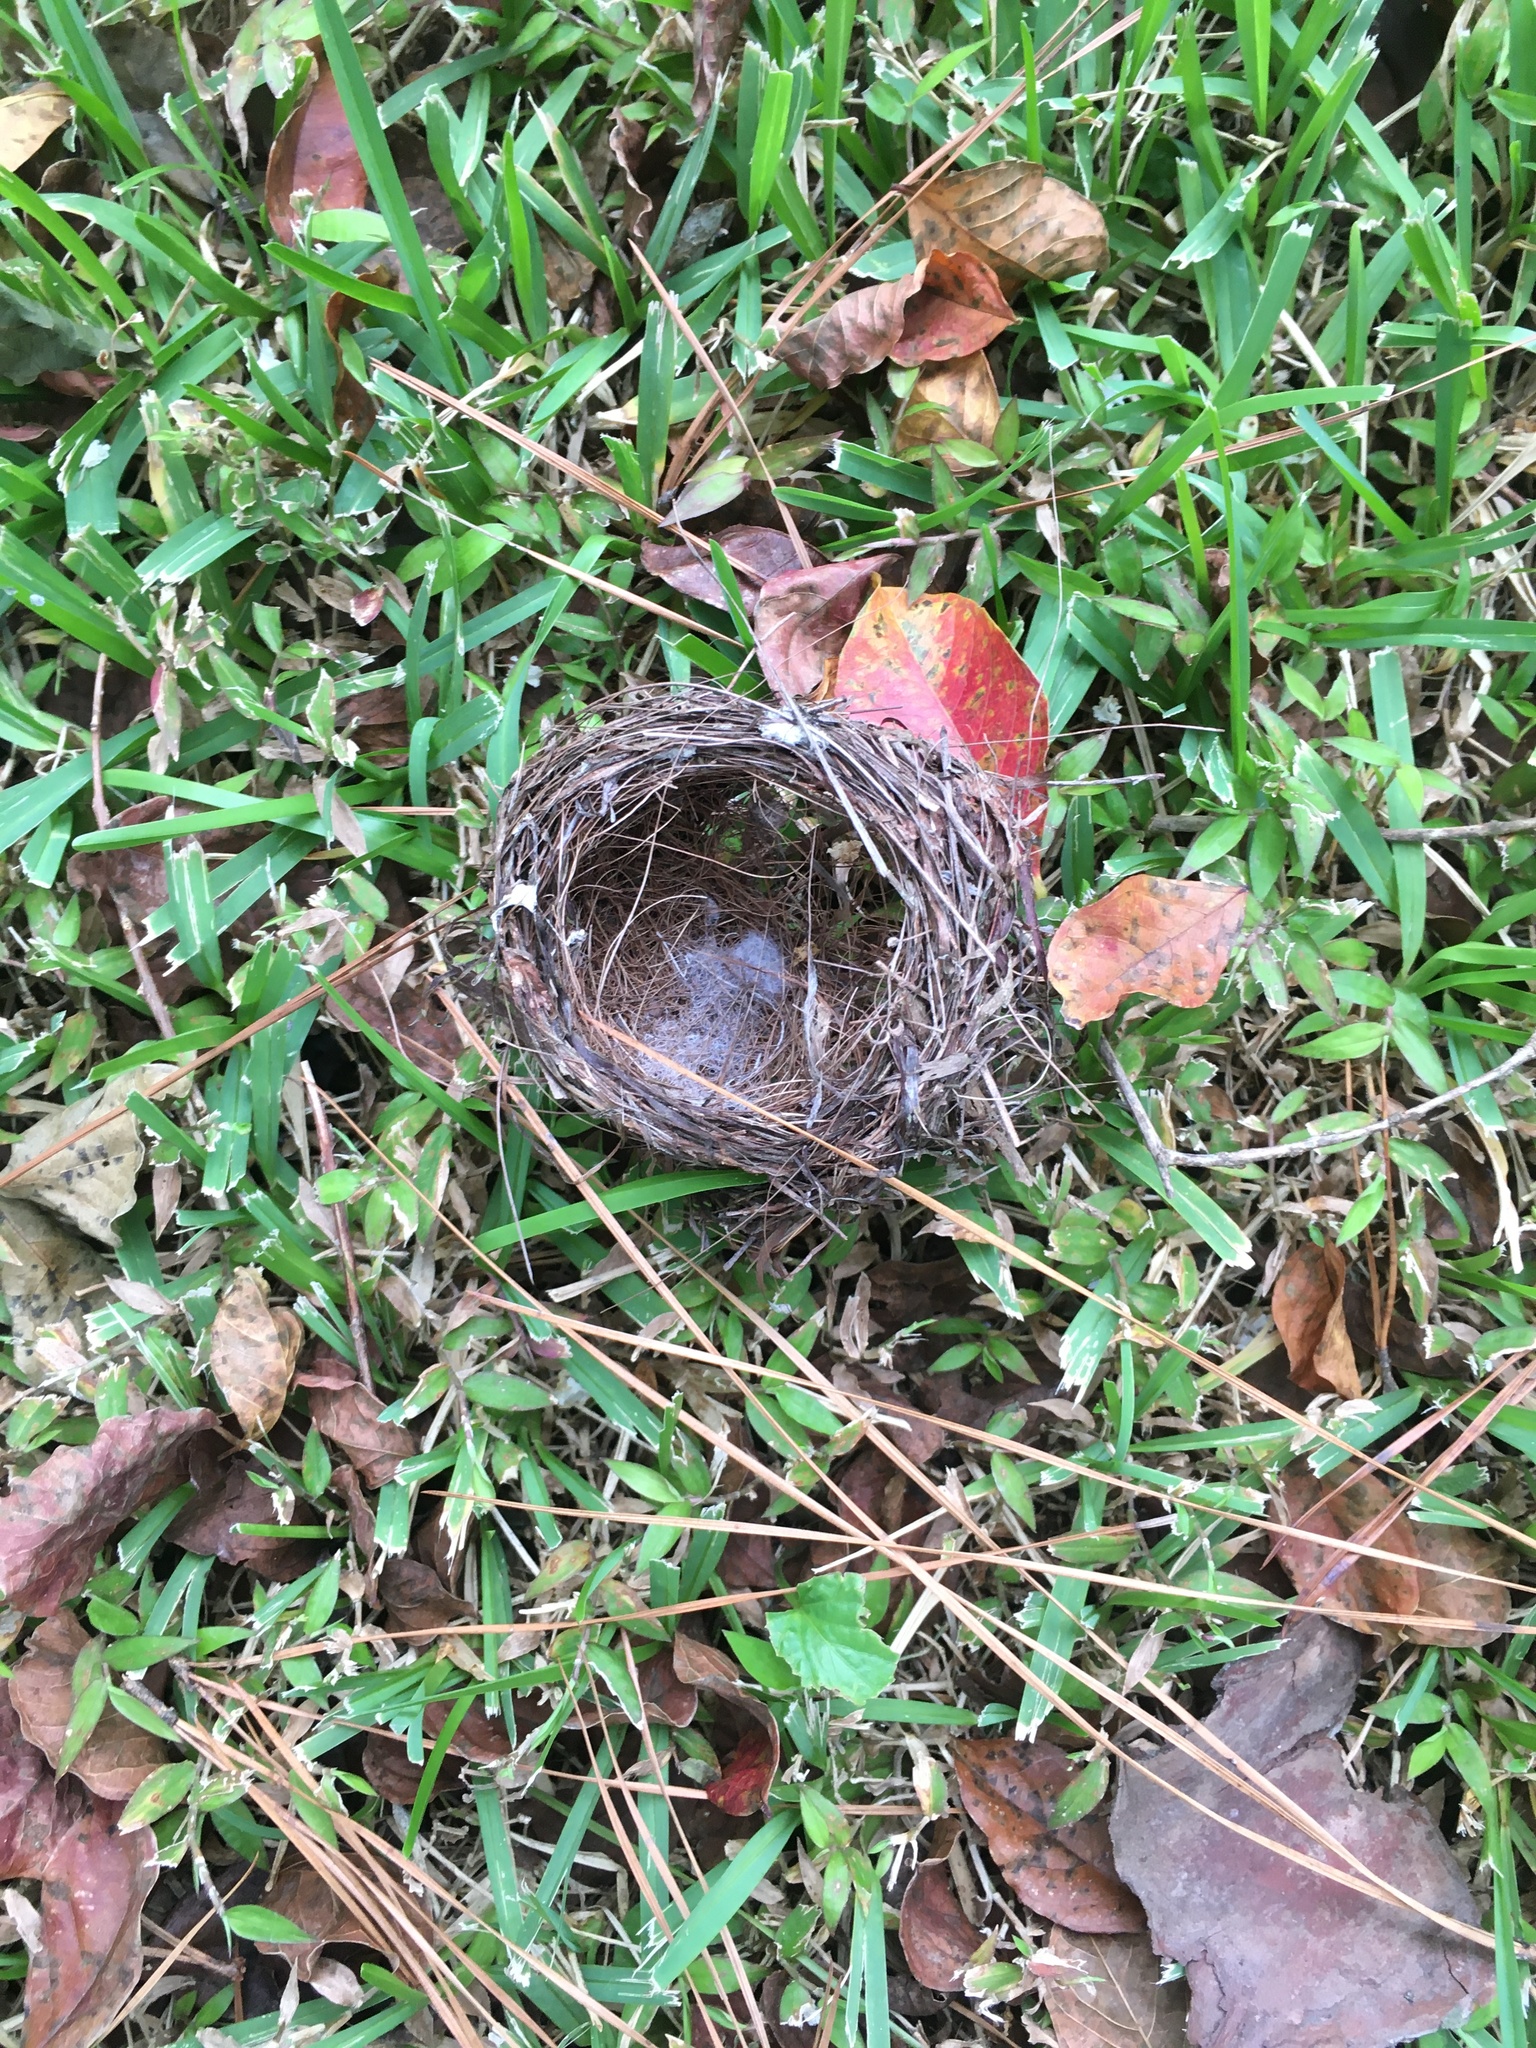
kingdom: Animalia
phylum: Chordata
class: Aves
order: Passeriformes
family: Cardinalidae
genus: Cardinalis
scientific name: Cardinalis cardinalis
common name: Northern cardinal
